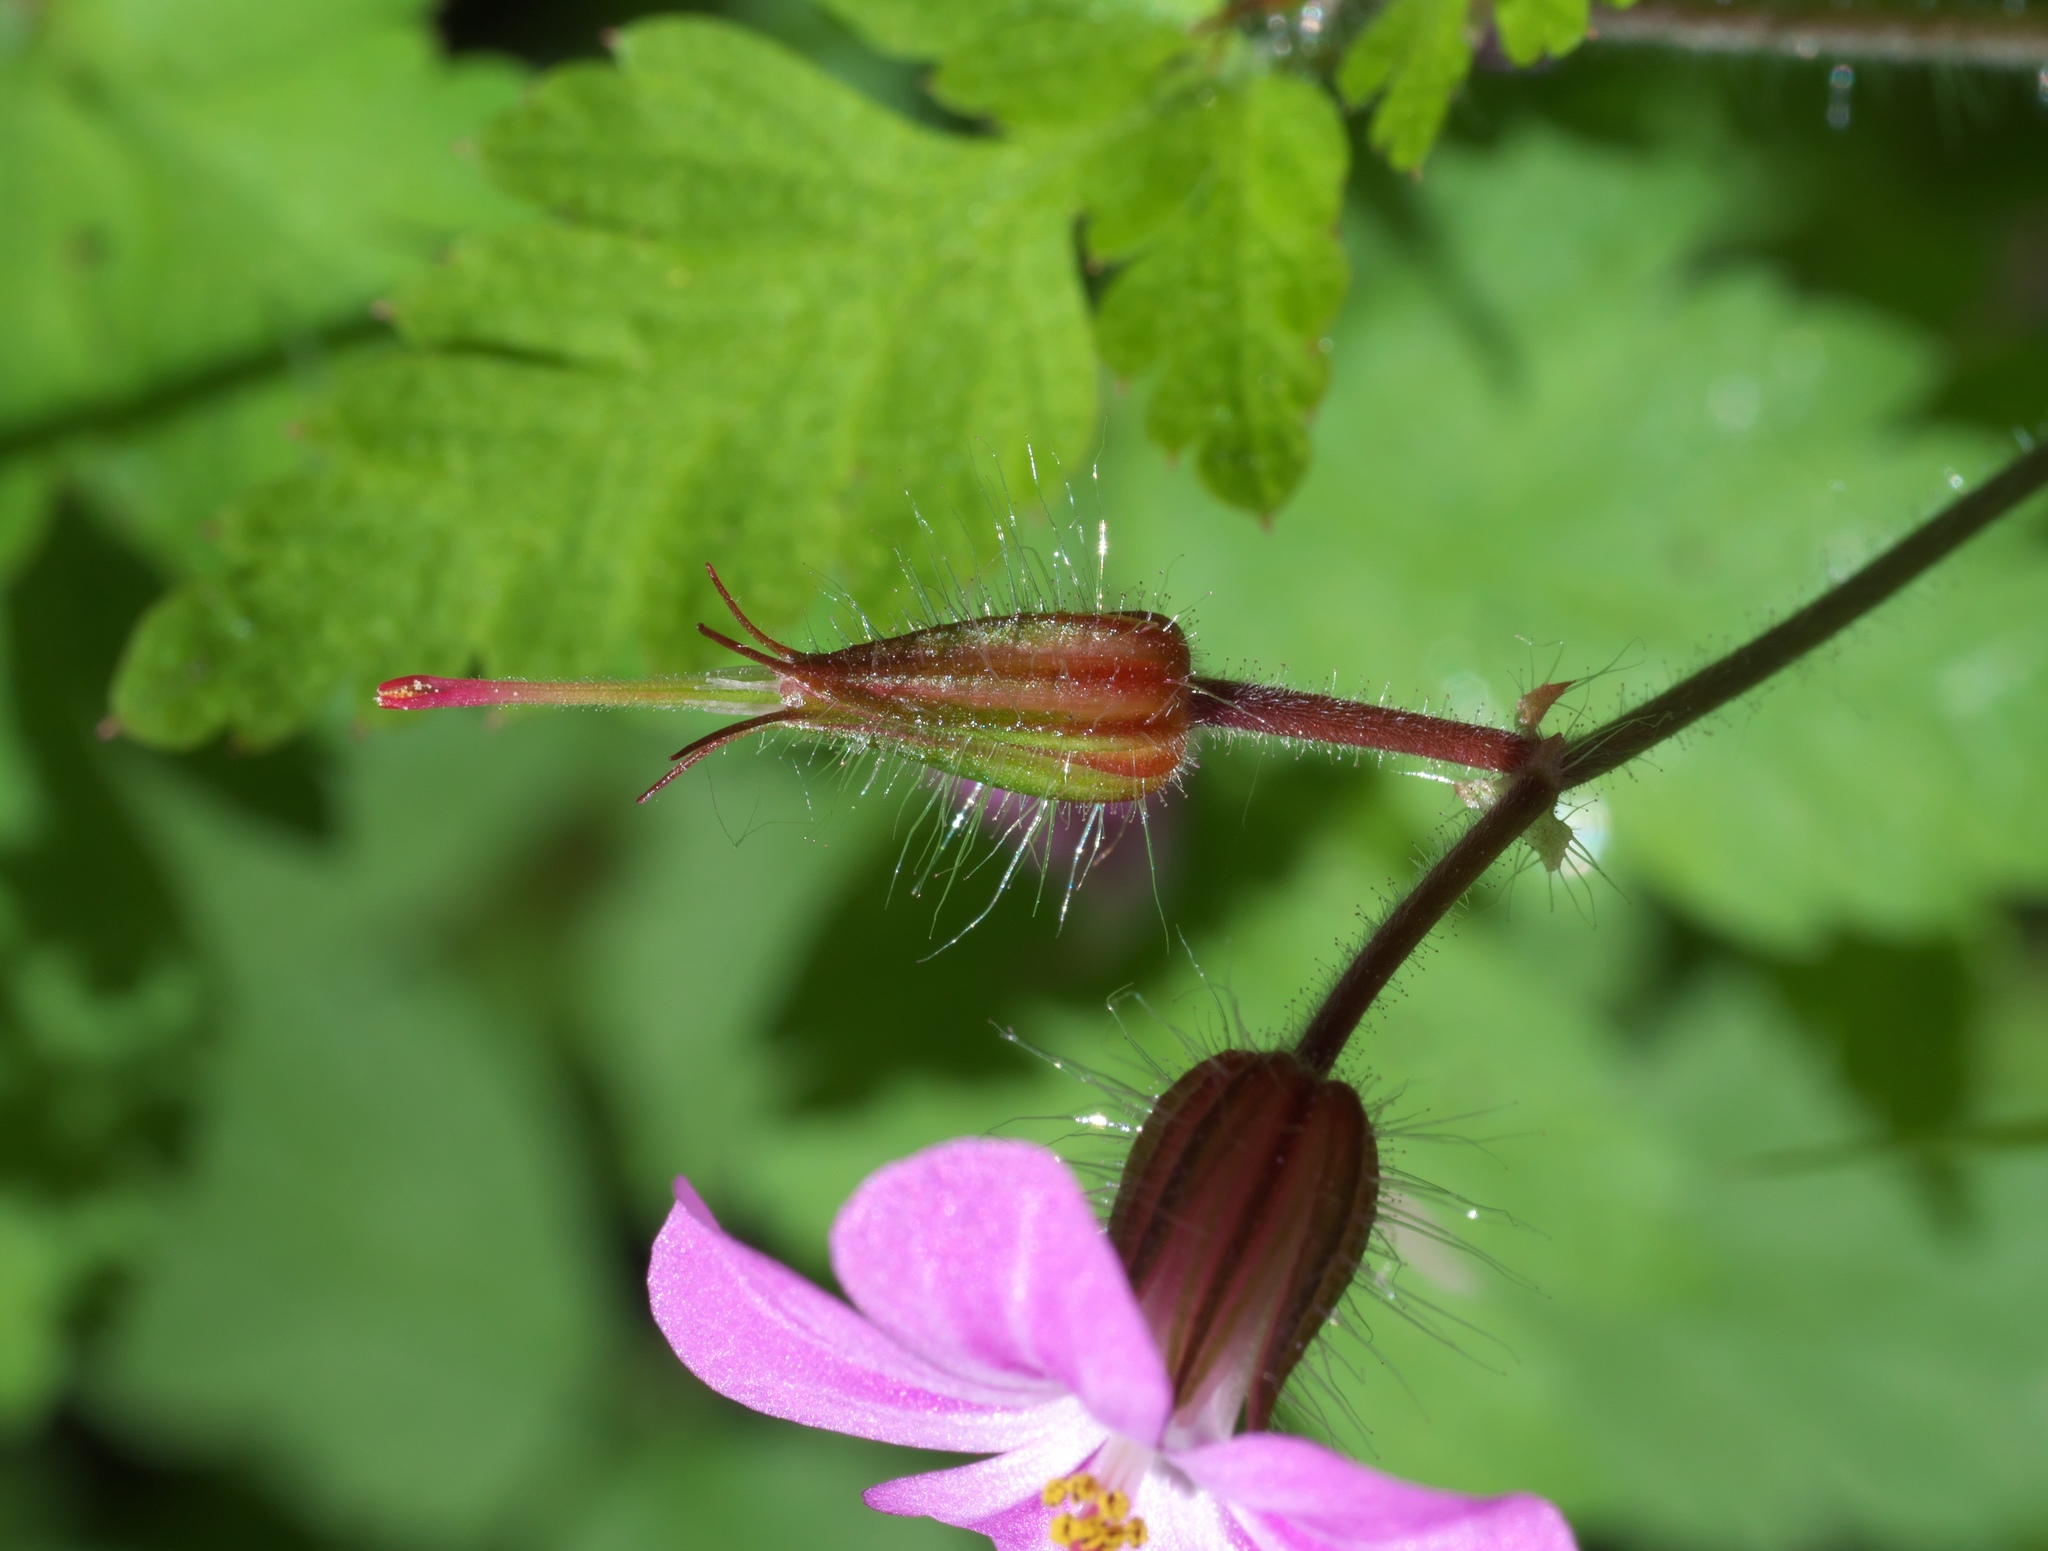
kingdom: Plantae
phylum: Tracheophyta
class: Magnoliopsida
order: Geraniales
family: Geraniaceae
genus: Geranium
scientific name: Geranium robertianum
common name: Herb-robert
